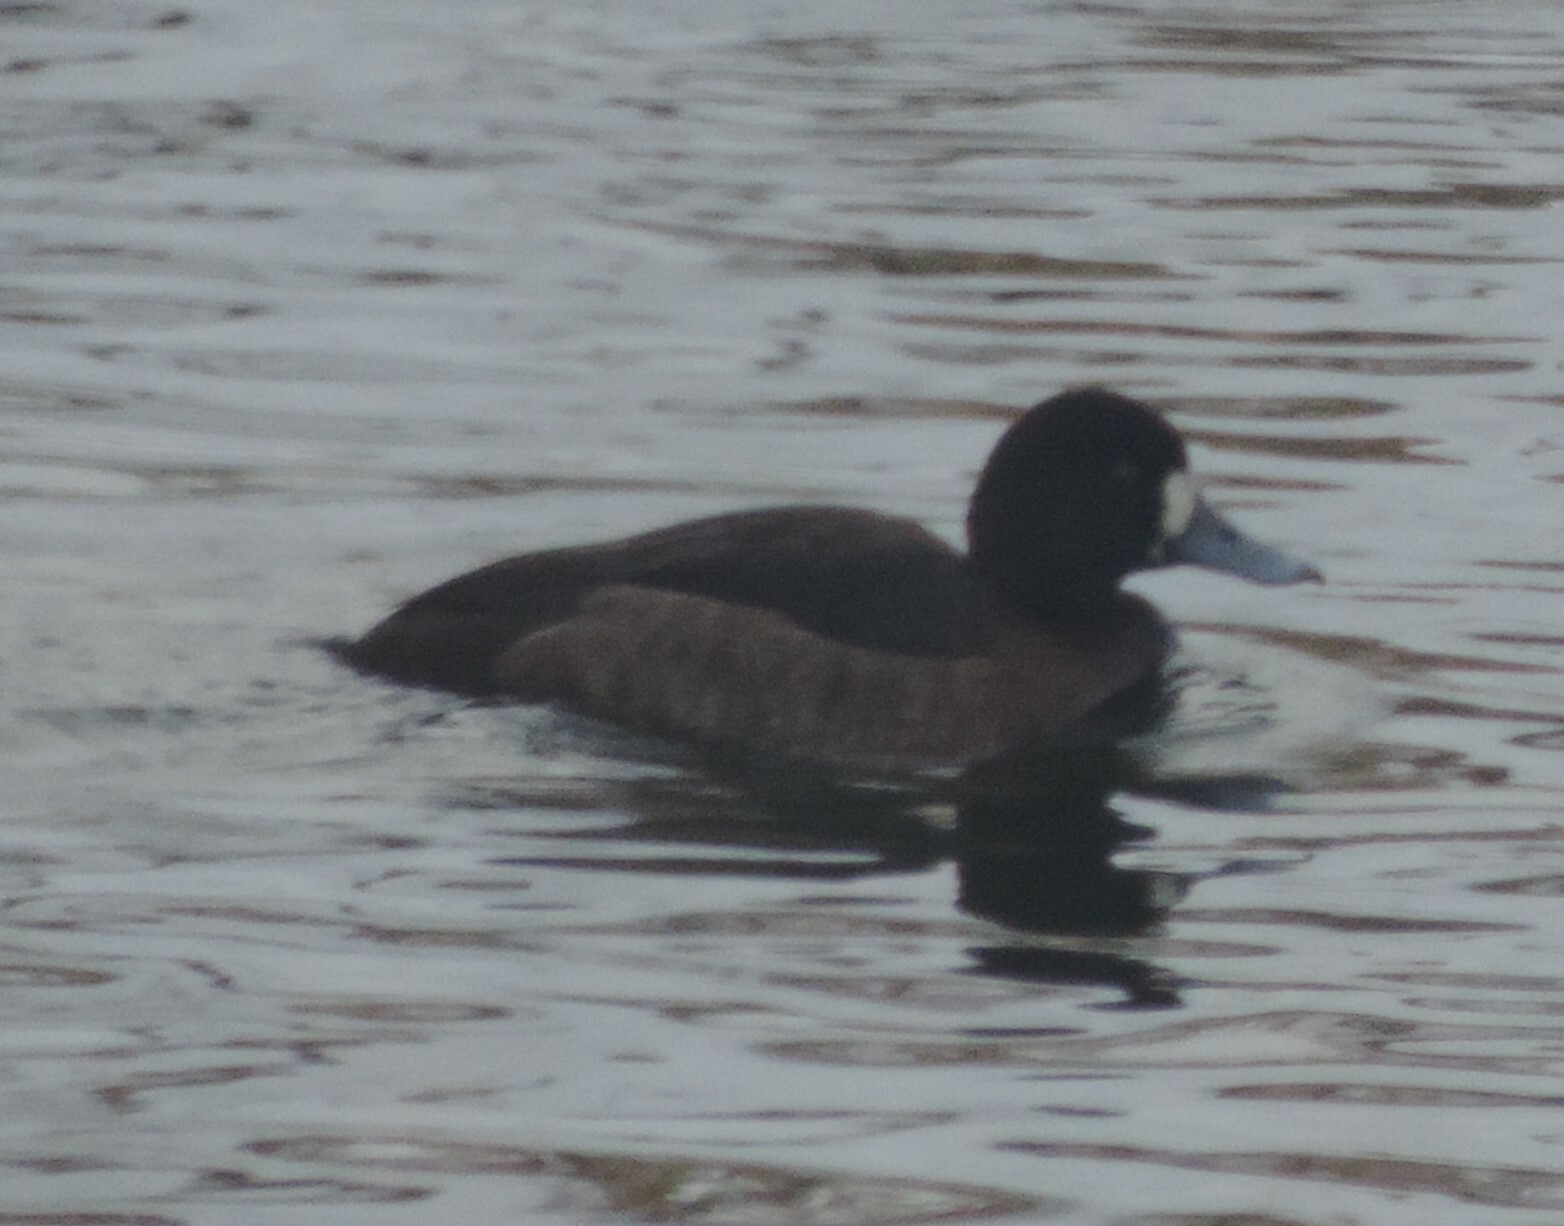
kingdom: Animalia
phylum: Chordata
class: Aves
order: Anseriformes
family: Anatidae
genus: Aythya
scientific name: Aythya marila
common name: Greater scaup
